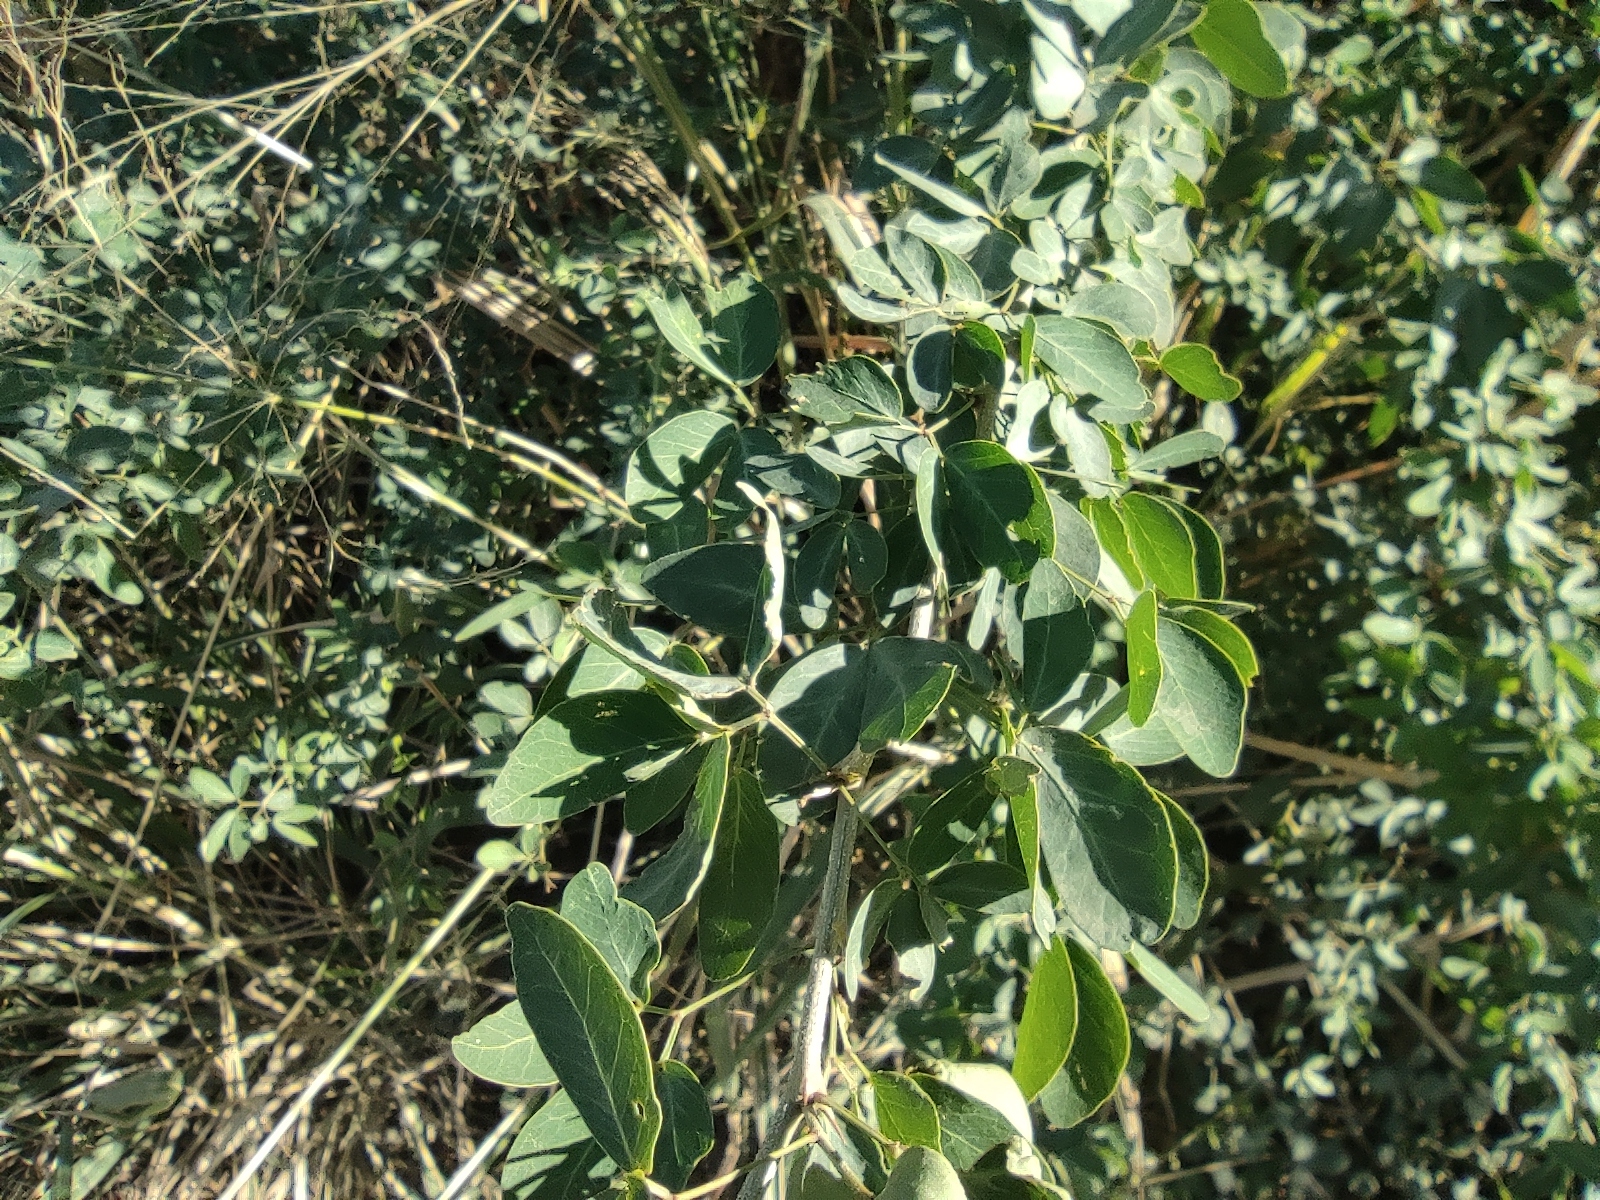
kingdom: Plantae
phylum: Tracheophyta
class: Magnoliopsida
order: Fabales
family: Fabaceae
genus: Pithecellobium
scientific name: Pithecellobium dulce
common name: Monkeypod
